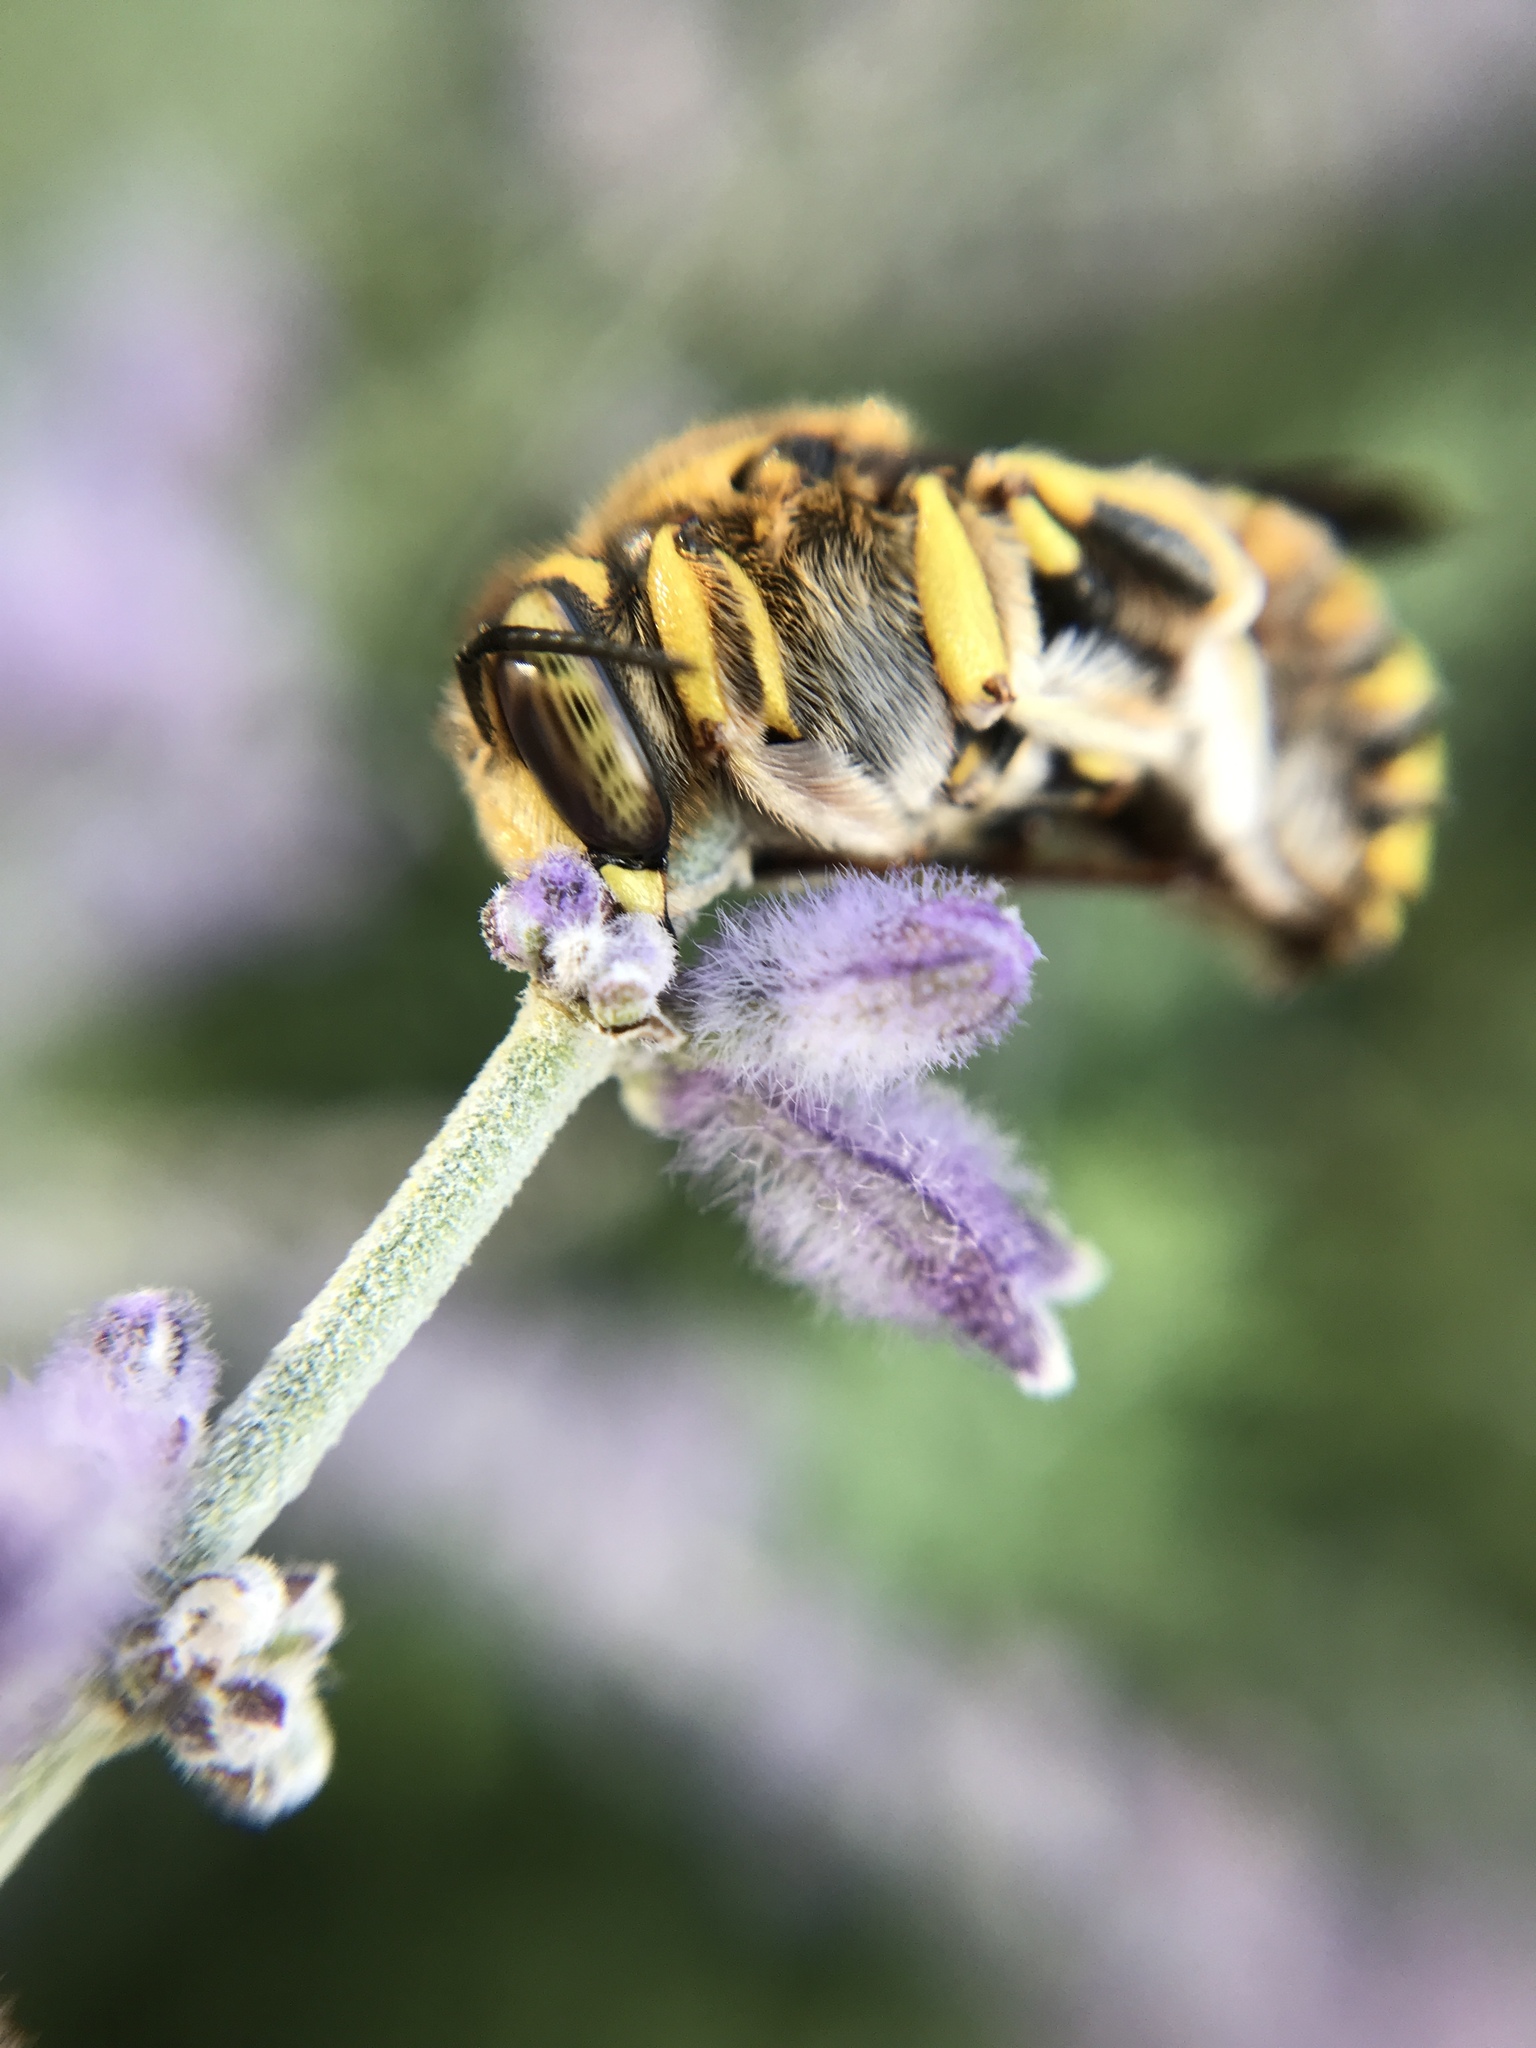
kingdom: Animalia
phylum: Arthropoda
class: Insecta
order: Hymenoptera
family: Megachilidae
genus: Anthidium
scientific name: Anthidium florentinum
